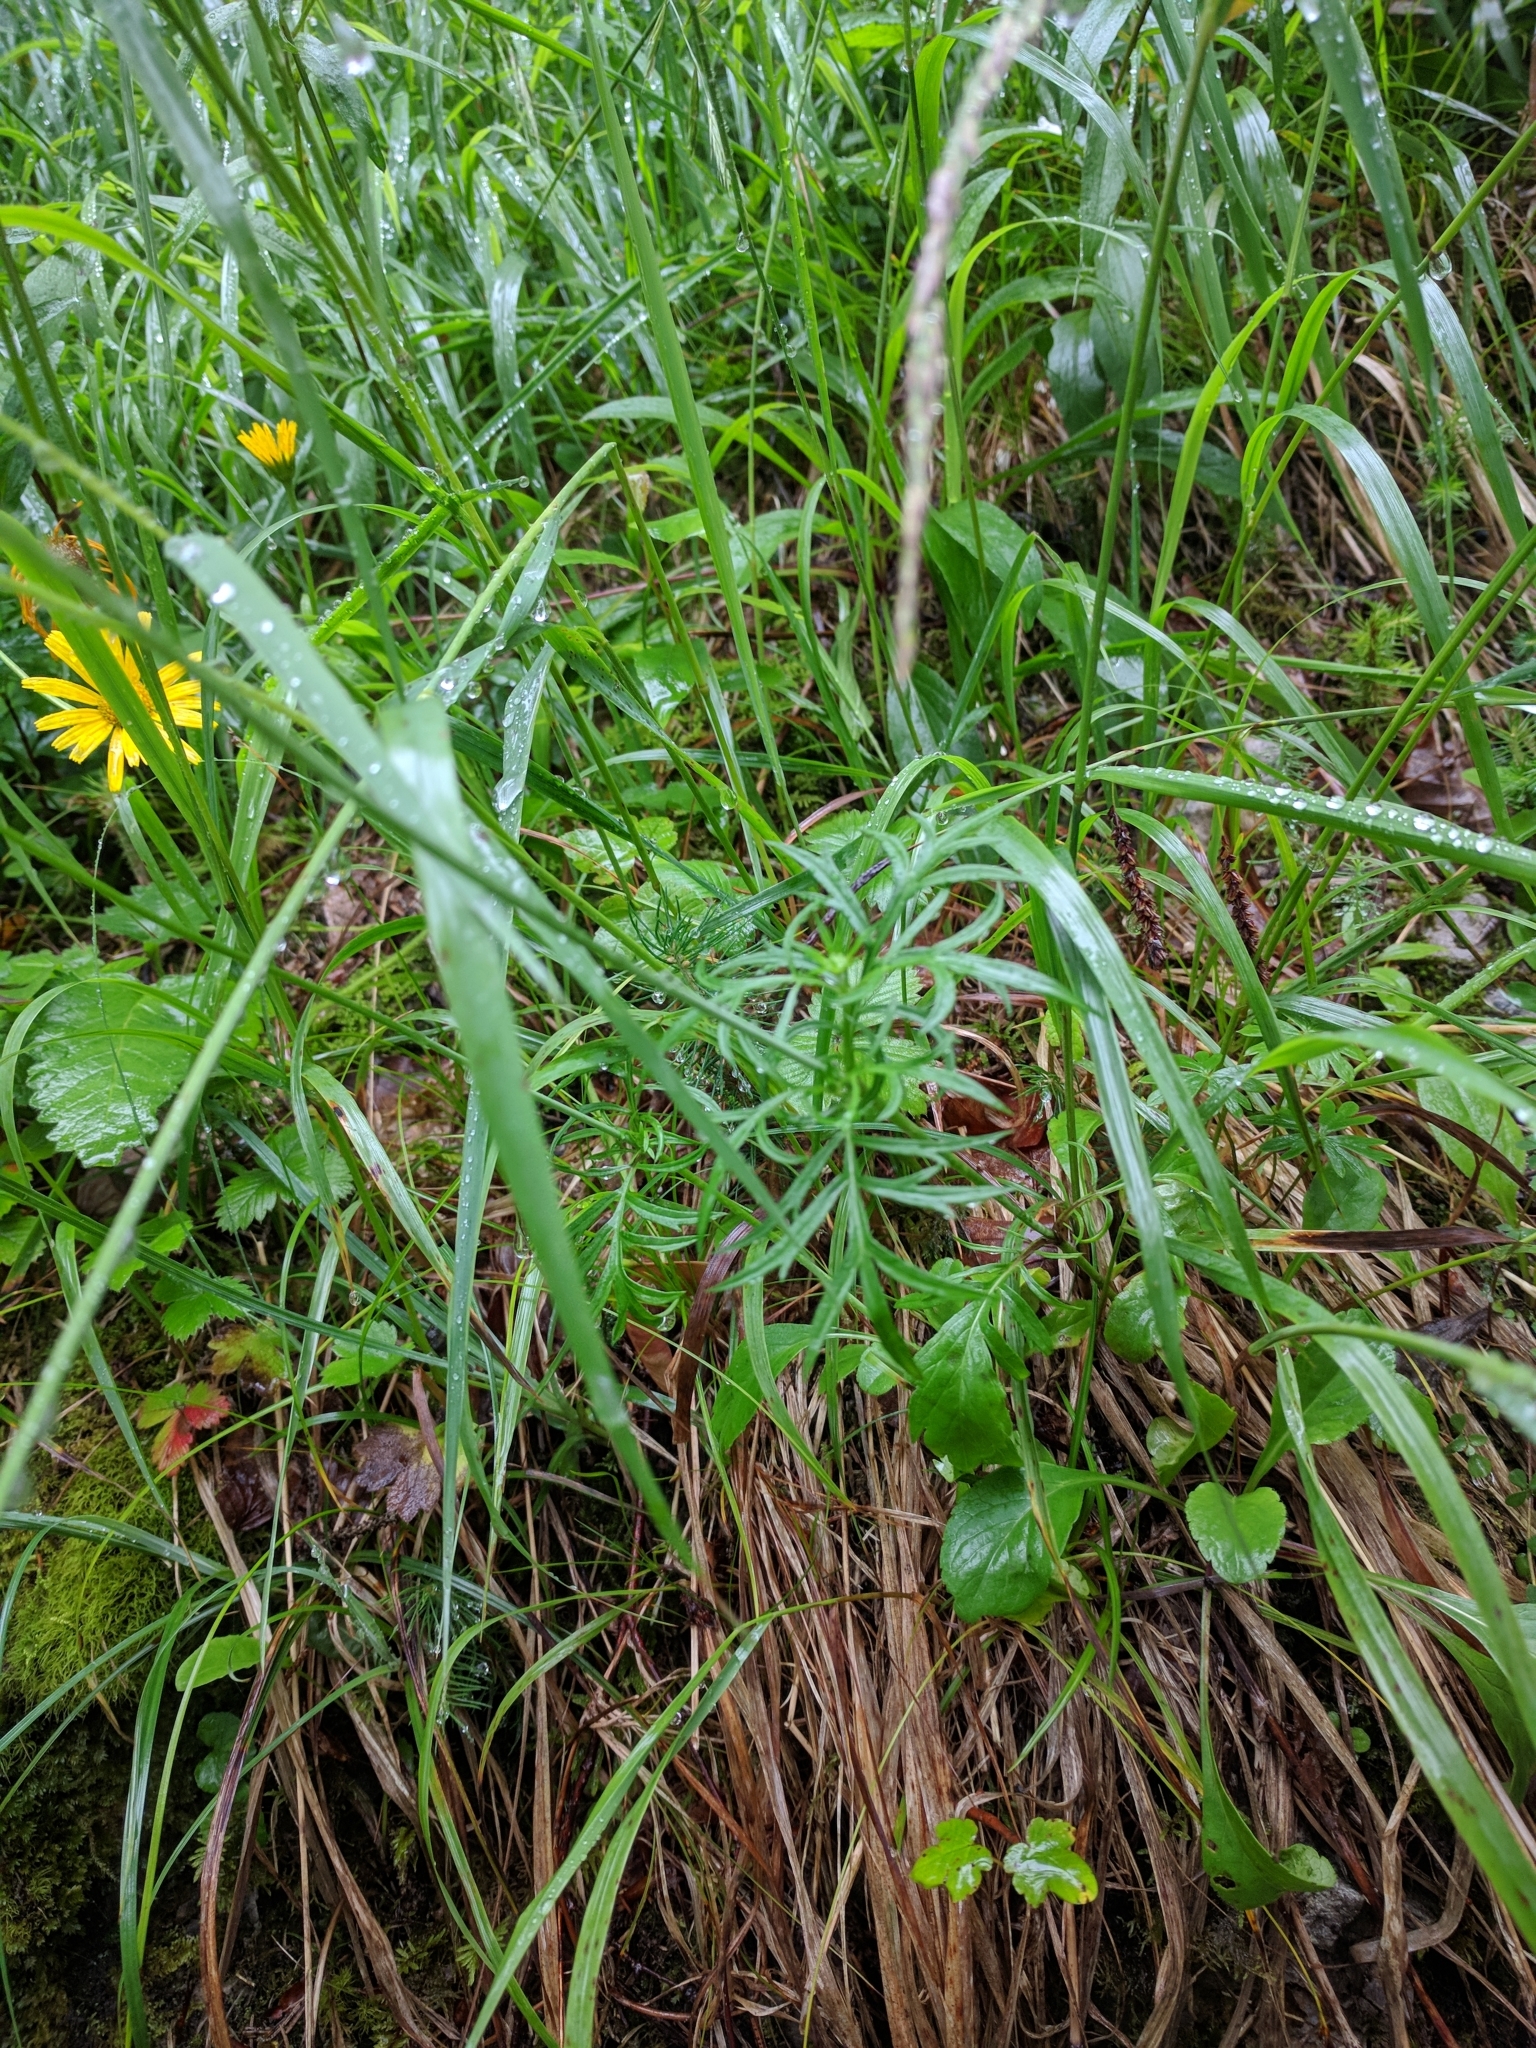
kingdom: Plantae
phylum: Tracheophyta
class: Magnoliopsida
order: Dipsacales
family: Caprifoliaceae
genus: Scabiosa
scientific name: Scabiosa columbaria
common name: Small scabious
